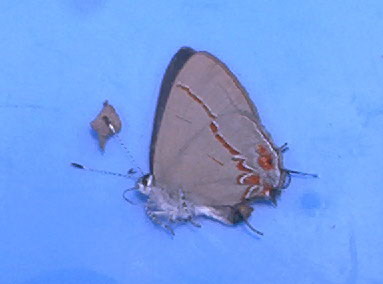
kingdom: Animalia
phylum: Arthropoda
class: Insecta
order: Lepidoptera
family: Lycaenidae
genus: Calycopis
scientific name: Calycopis partunda
